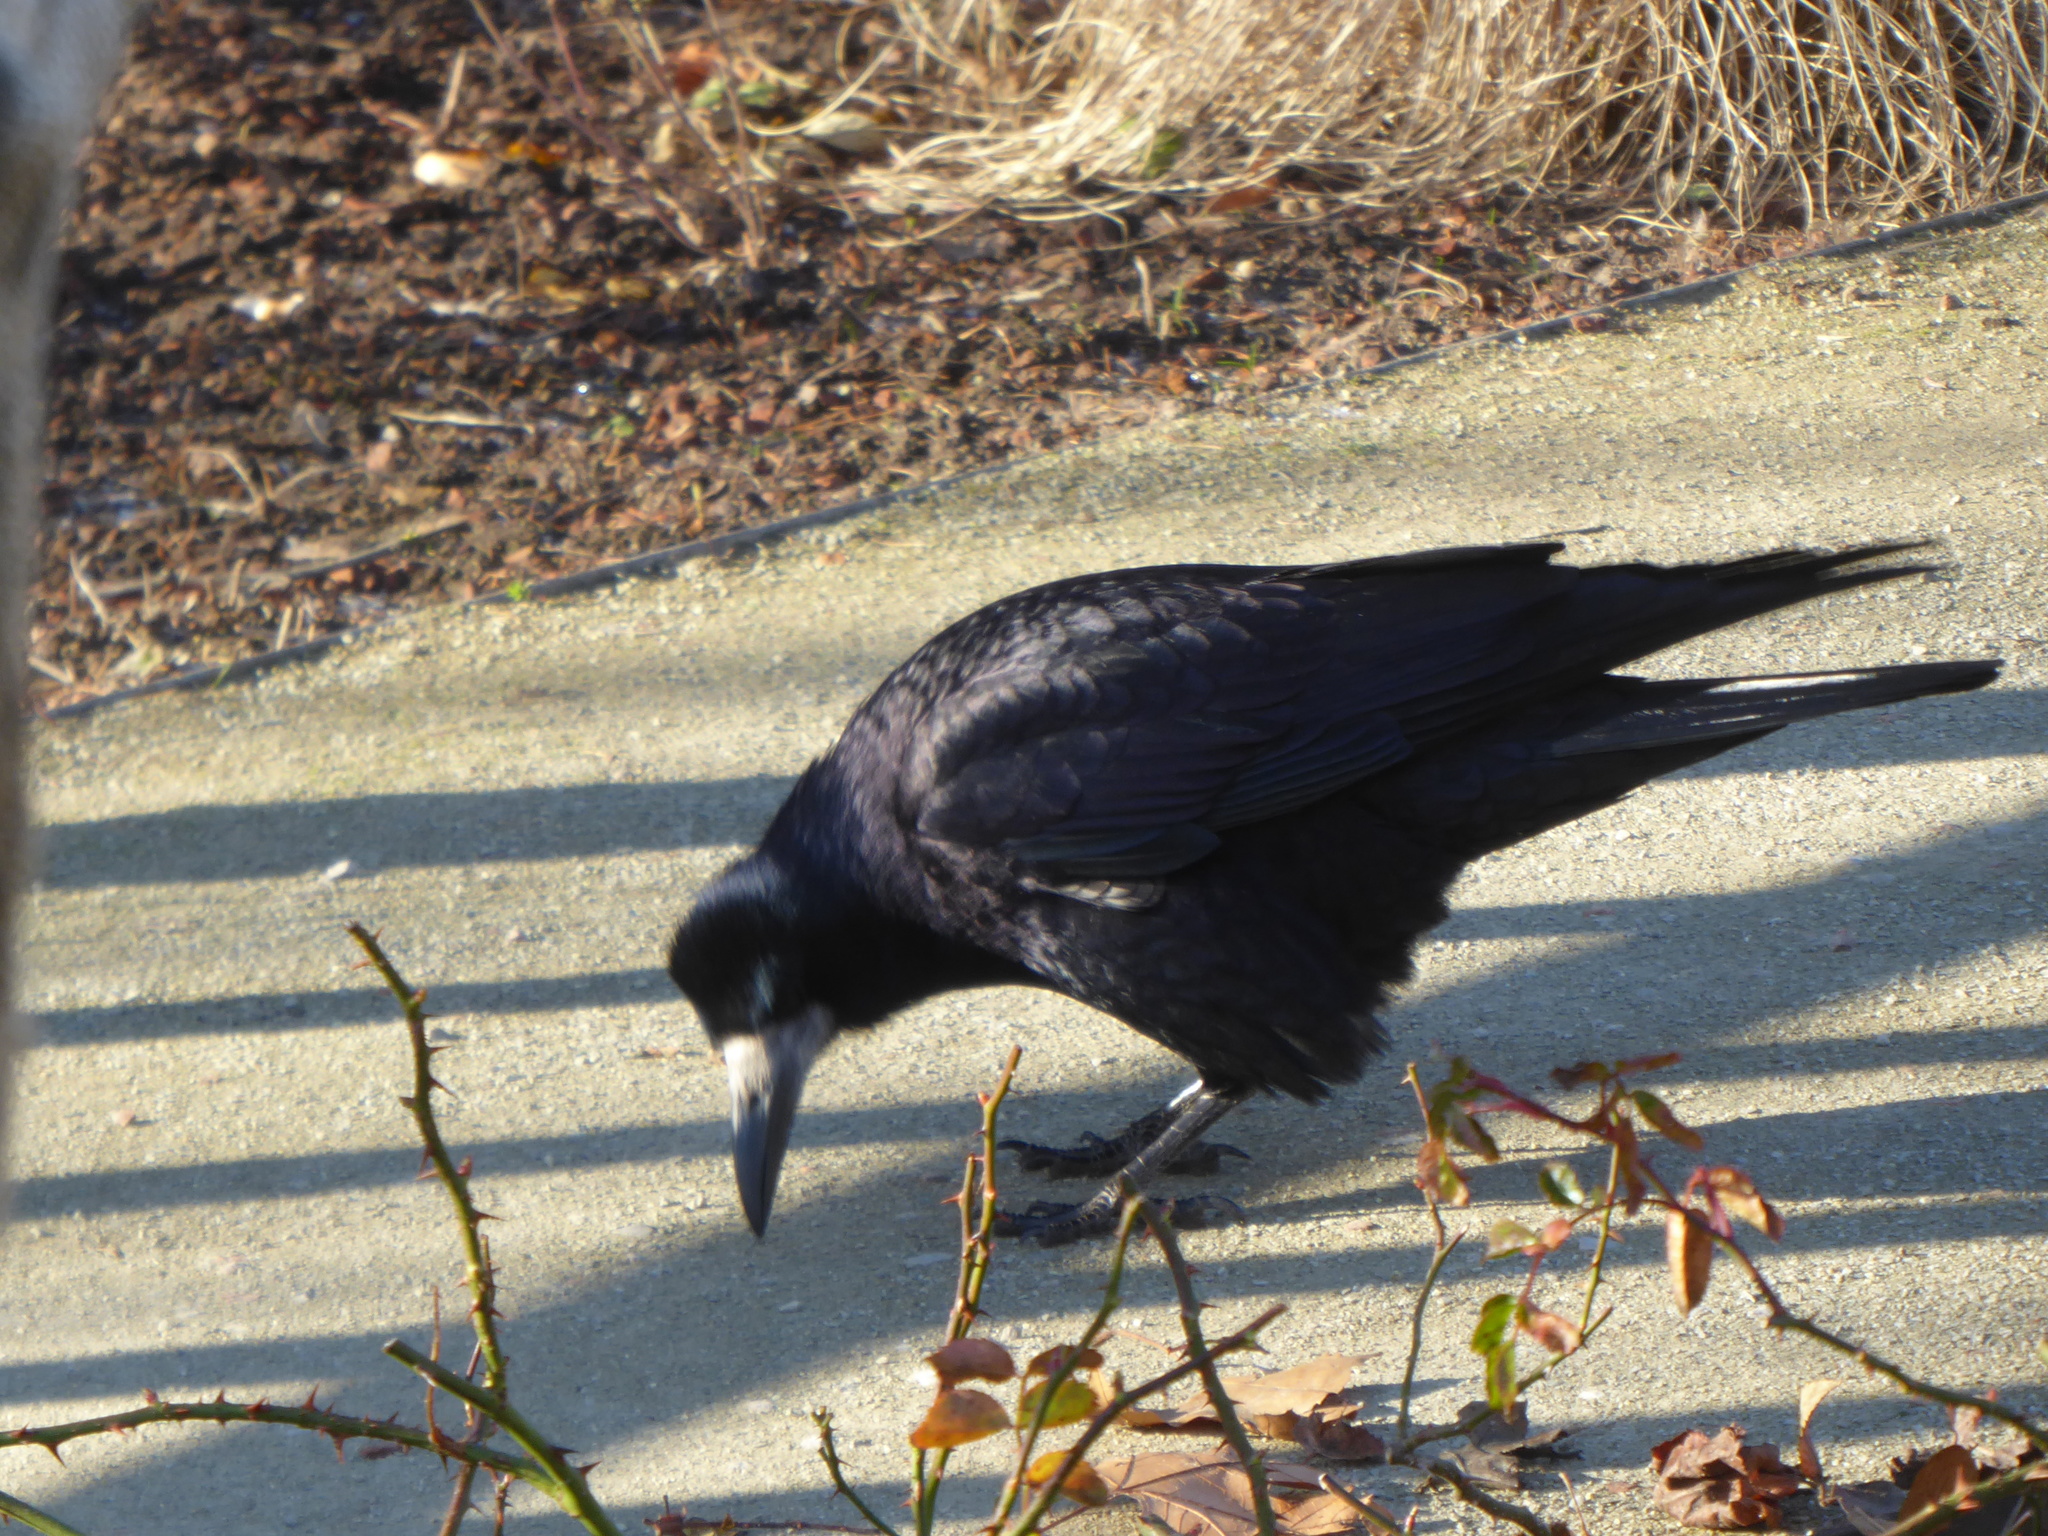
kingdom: Animalia
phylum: Chordata
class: Aves
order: Passeriformes
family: Corvidae
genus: Corvus
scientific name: Corvus frugilegus
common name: Rook
